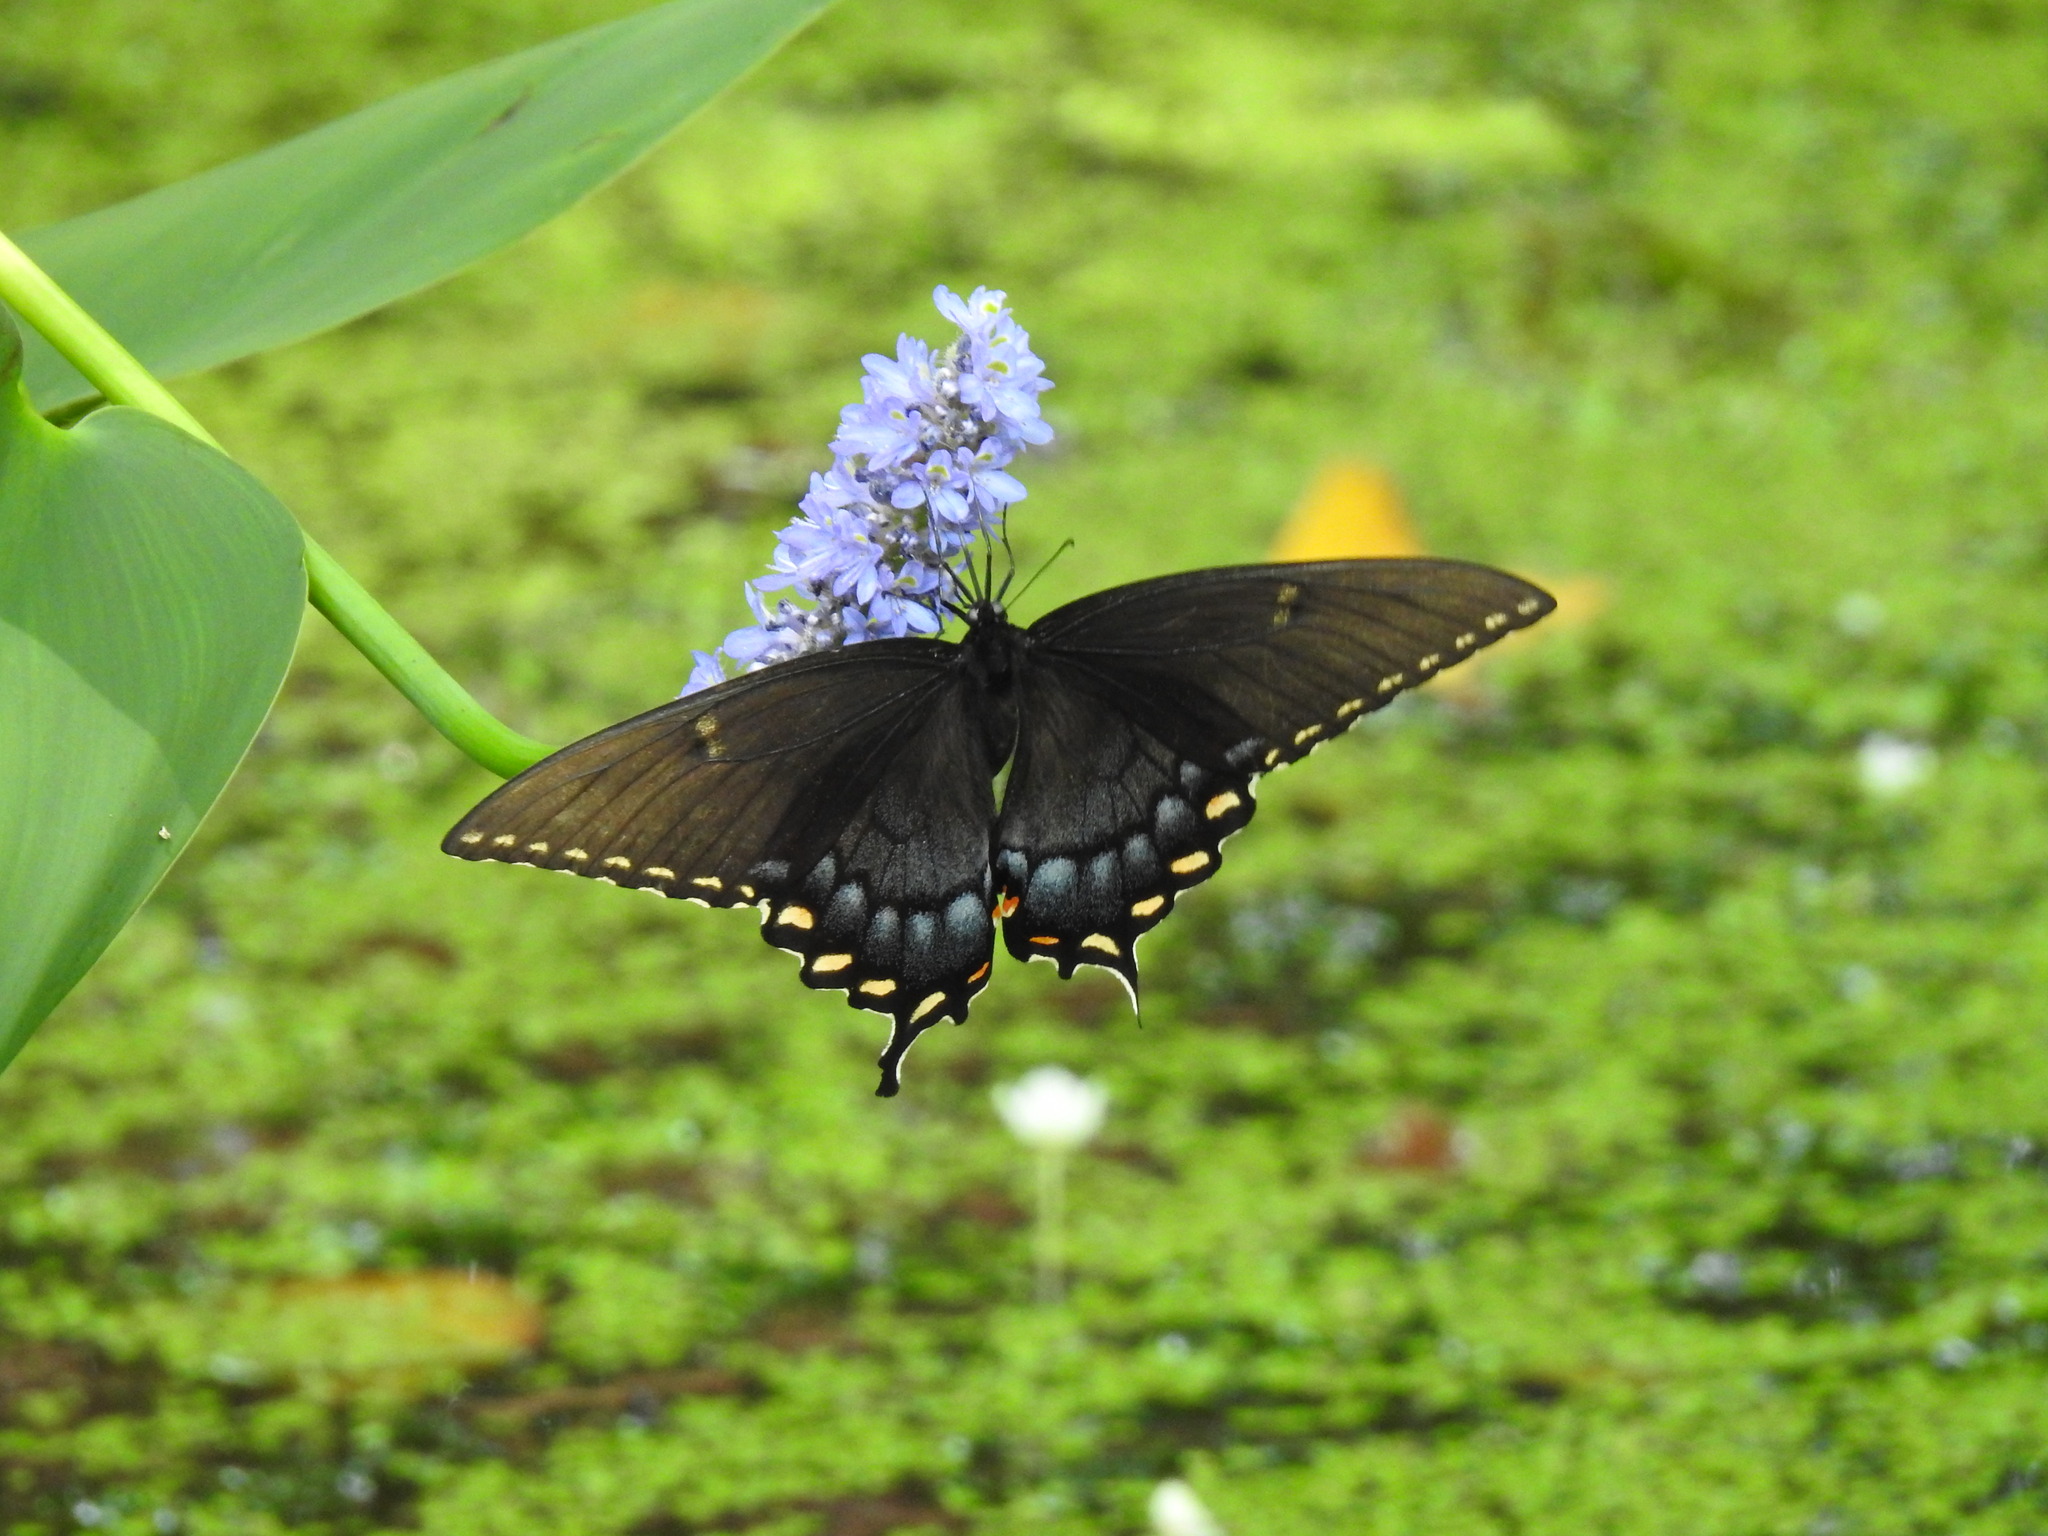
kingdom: Animalia
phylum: Arthropoda
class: Insecta
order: Lepidoptera
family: Papilionidae
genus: Papilio
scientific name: Papilio glaucus
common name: Tiger swallowtail
